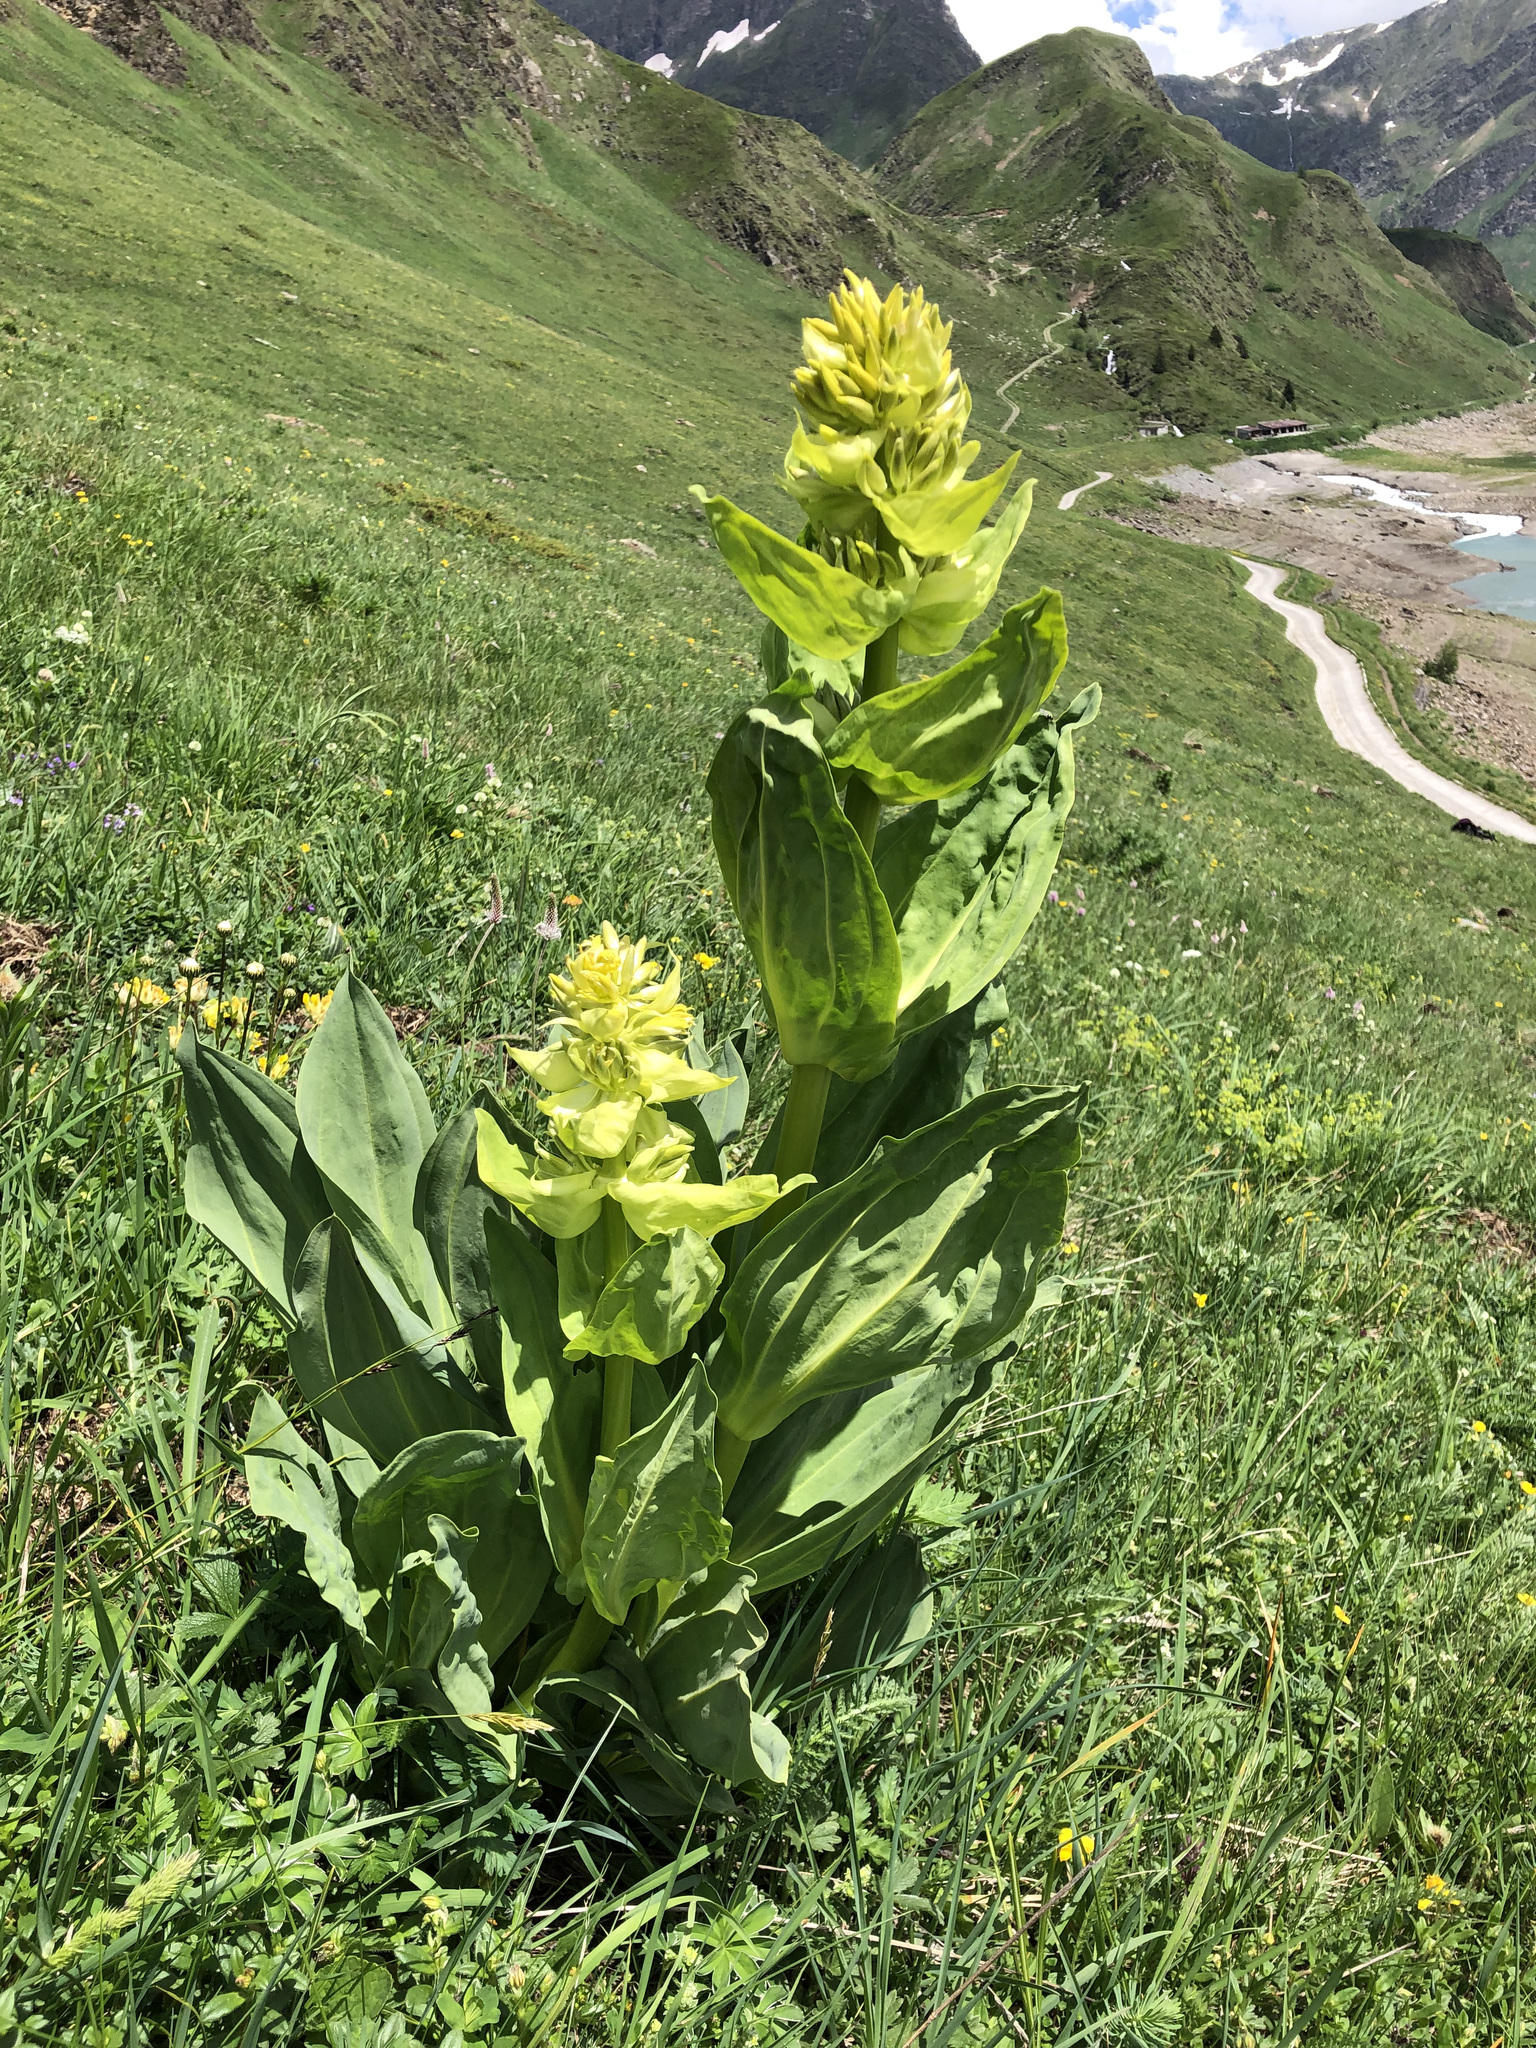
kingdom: Plantae
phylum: Tracheophyta
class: Magnoliopsida
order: Gentianales
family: Gentianaceae
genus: Gentiana
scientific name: Gentiana lutea
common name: Great yellow gentian
